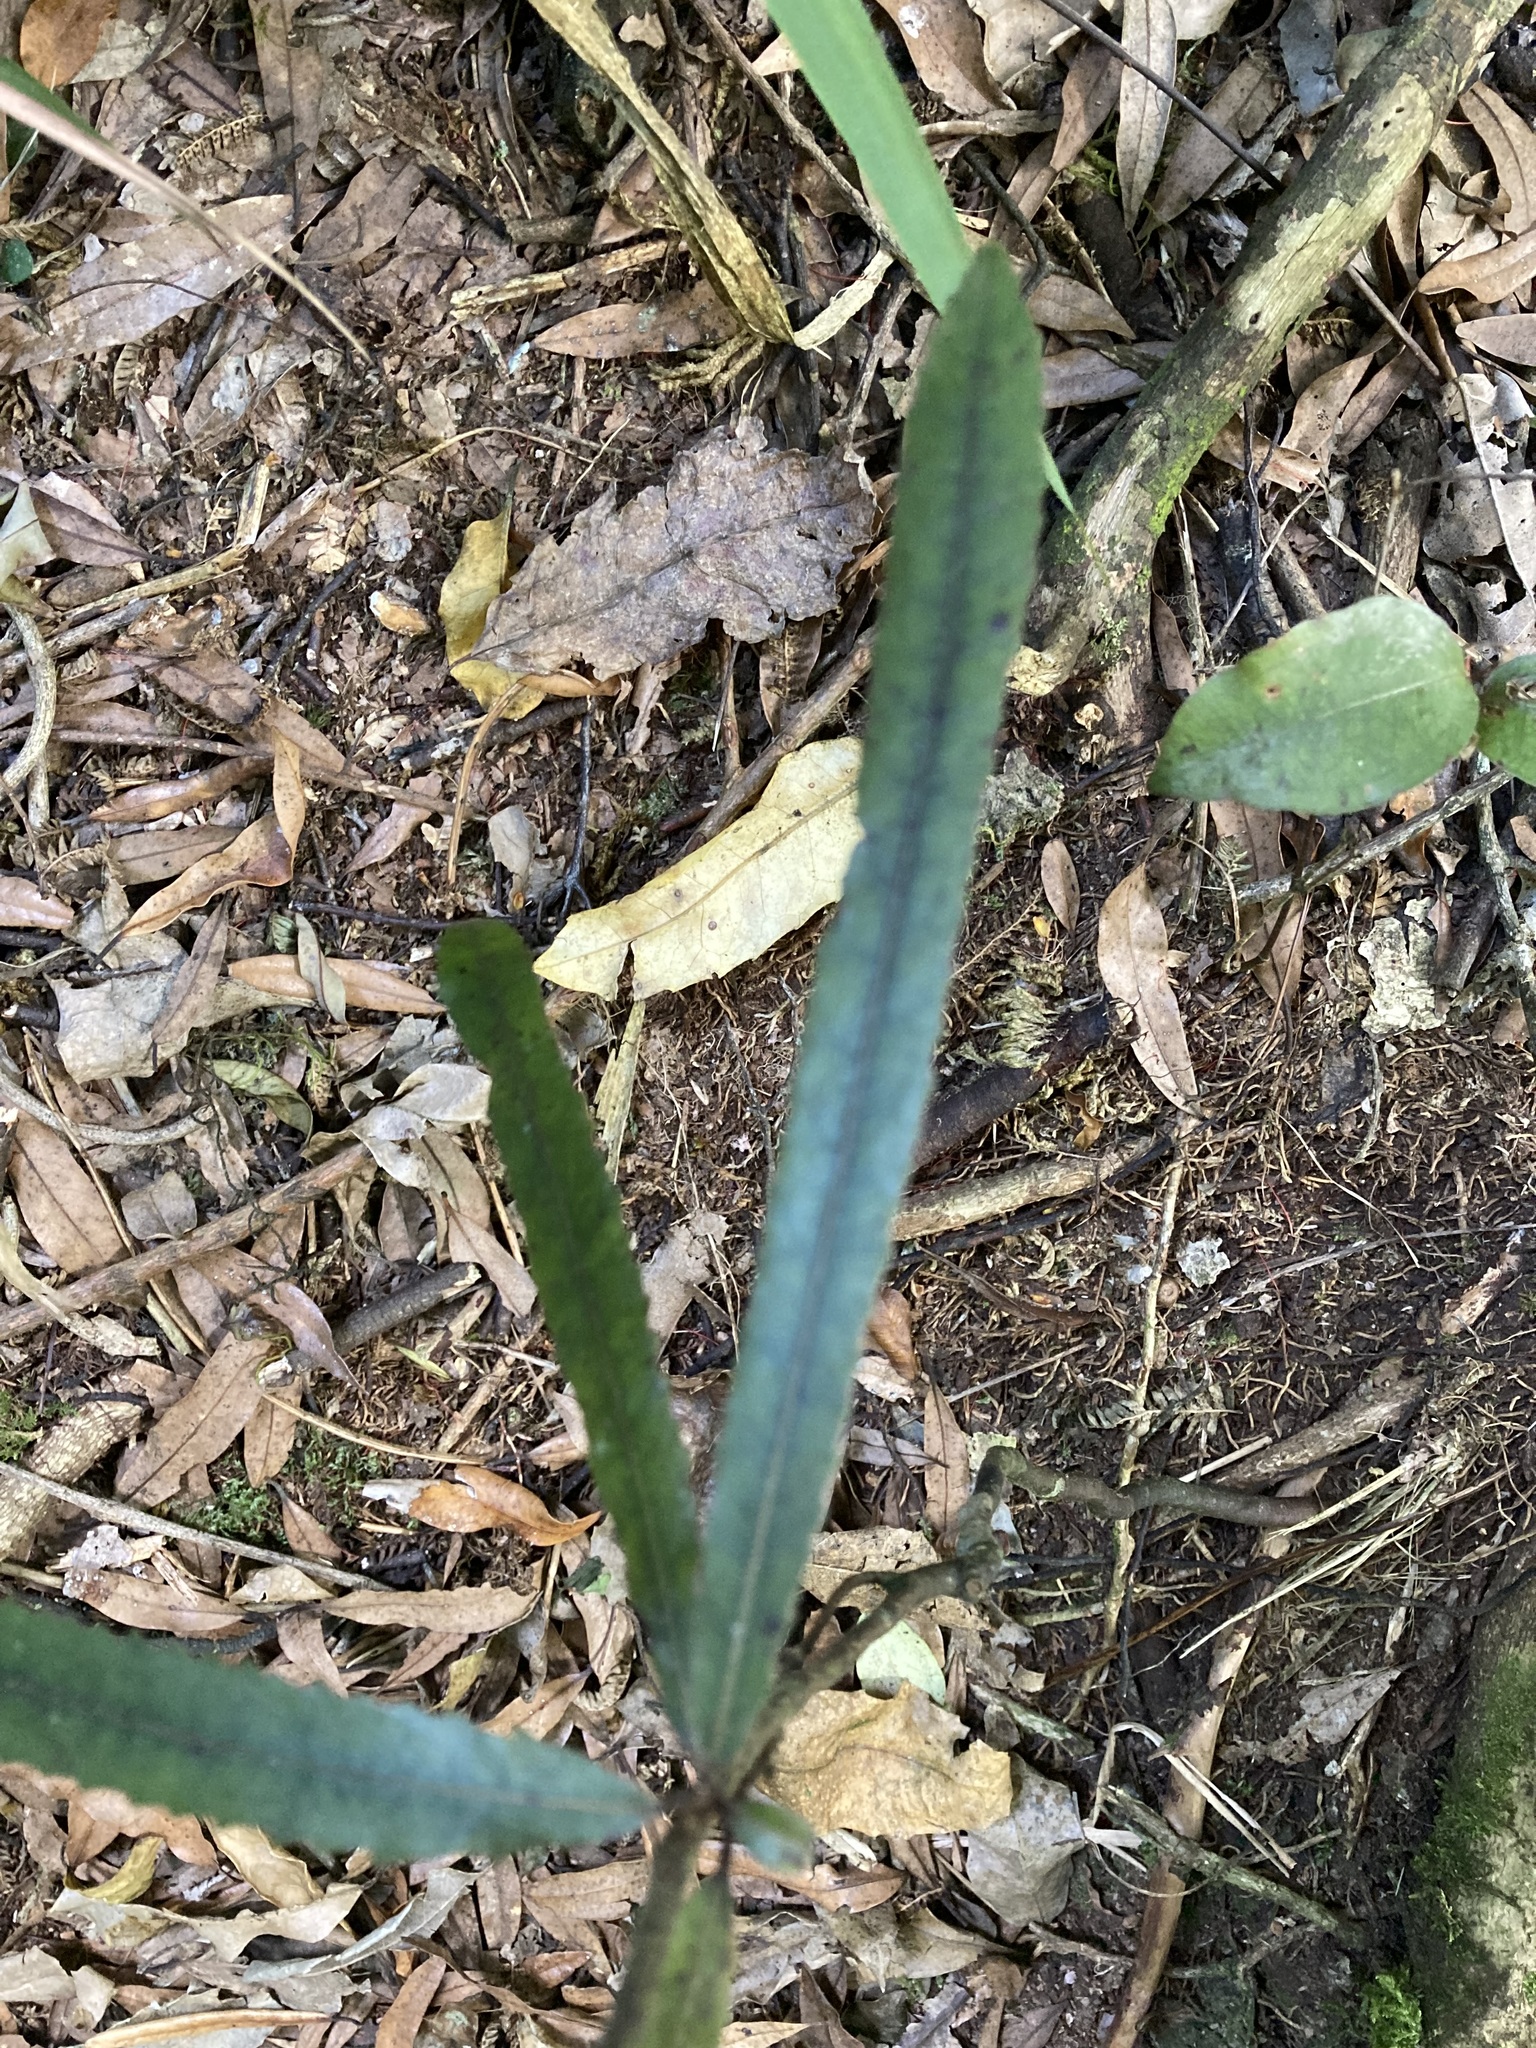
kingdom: Plantae
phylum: Tracheophyta
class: Magnoliopsida
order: Oxalidales
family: Elaeocarpaceae
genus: Elaeocarpus
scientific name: Elaeocarpus dentatus
